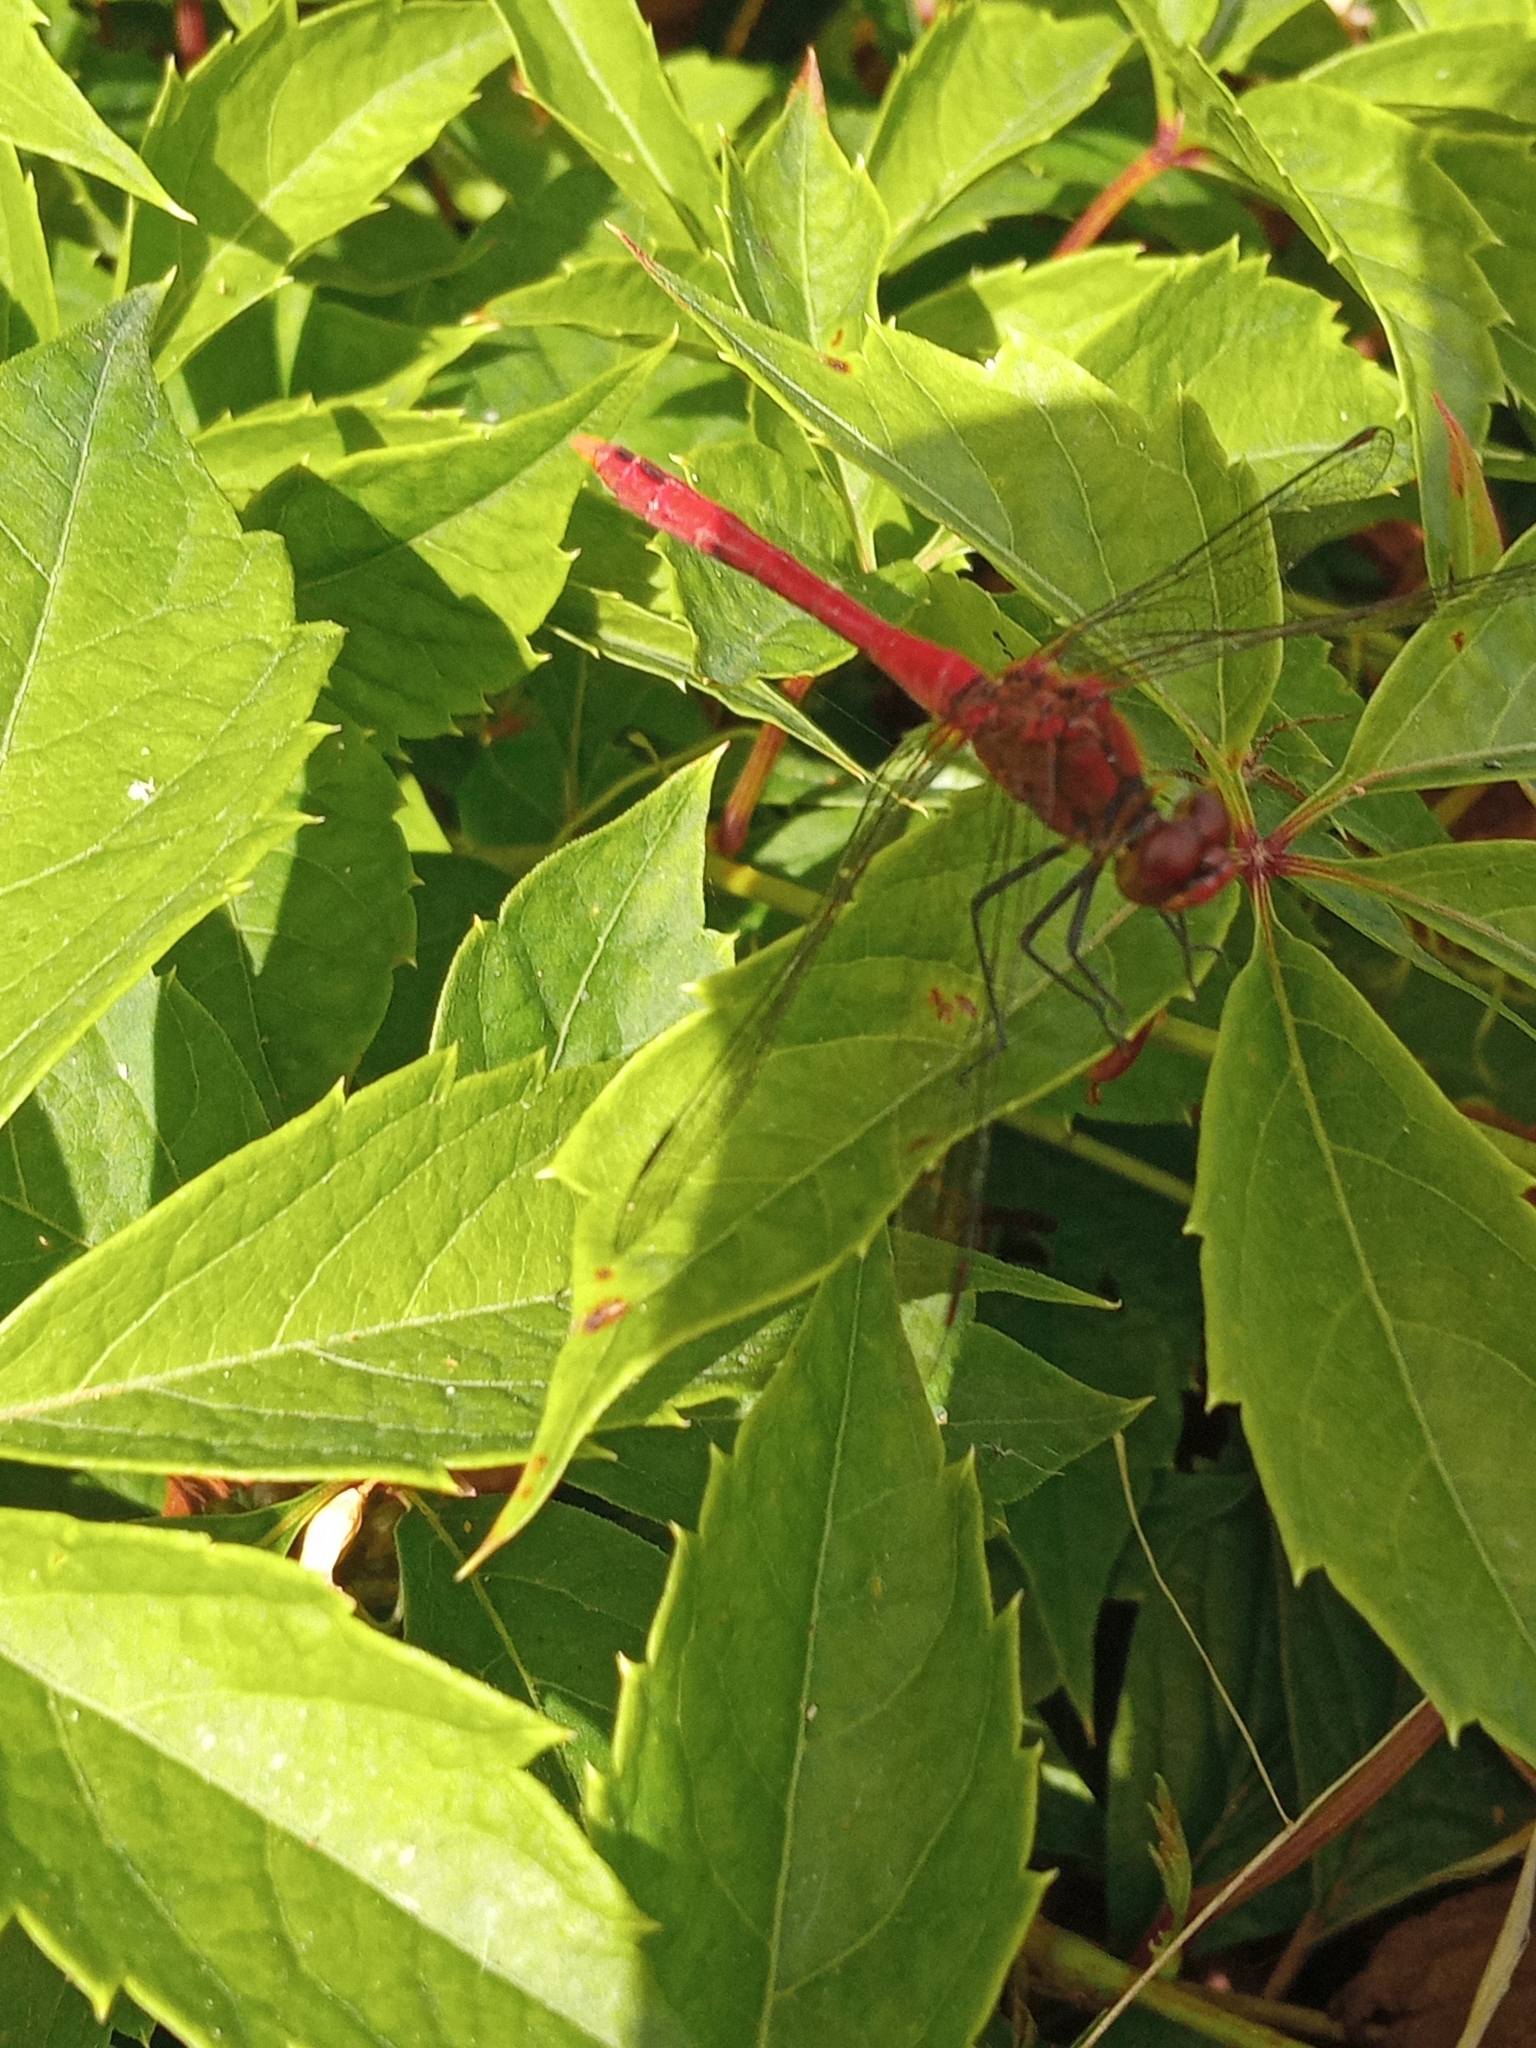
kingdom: Animalia
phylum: Arthropoda
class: Insecta
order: Odonata
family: Libellulidae
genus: Sympetrum
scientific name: Sympetrum sanguineum
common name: Ruddy darter
